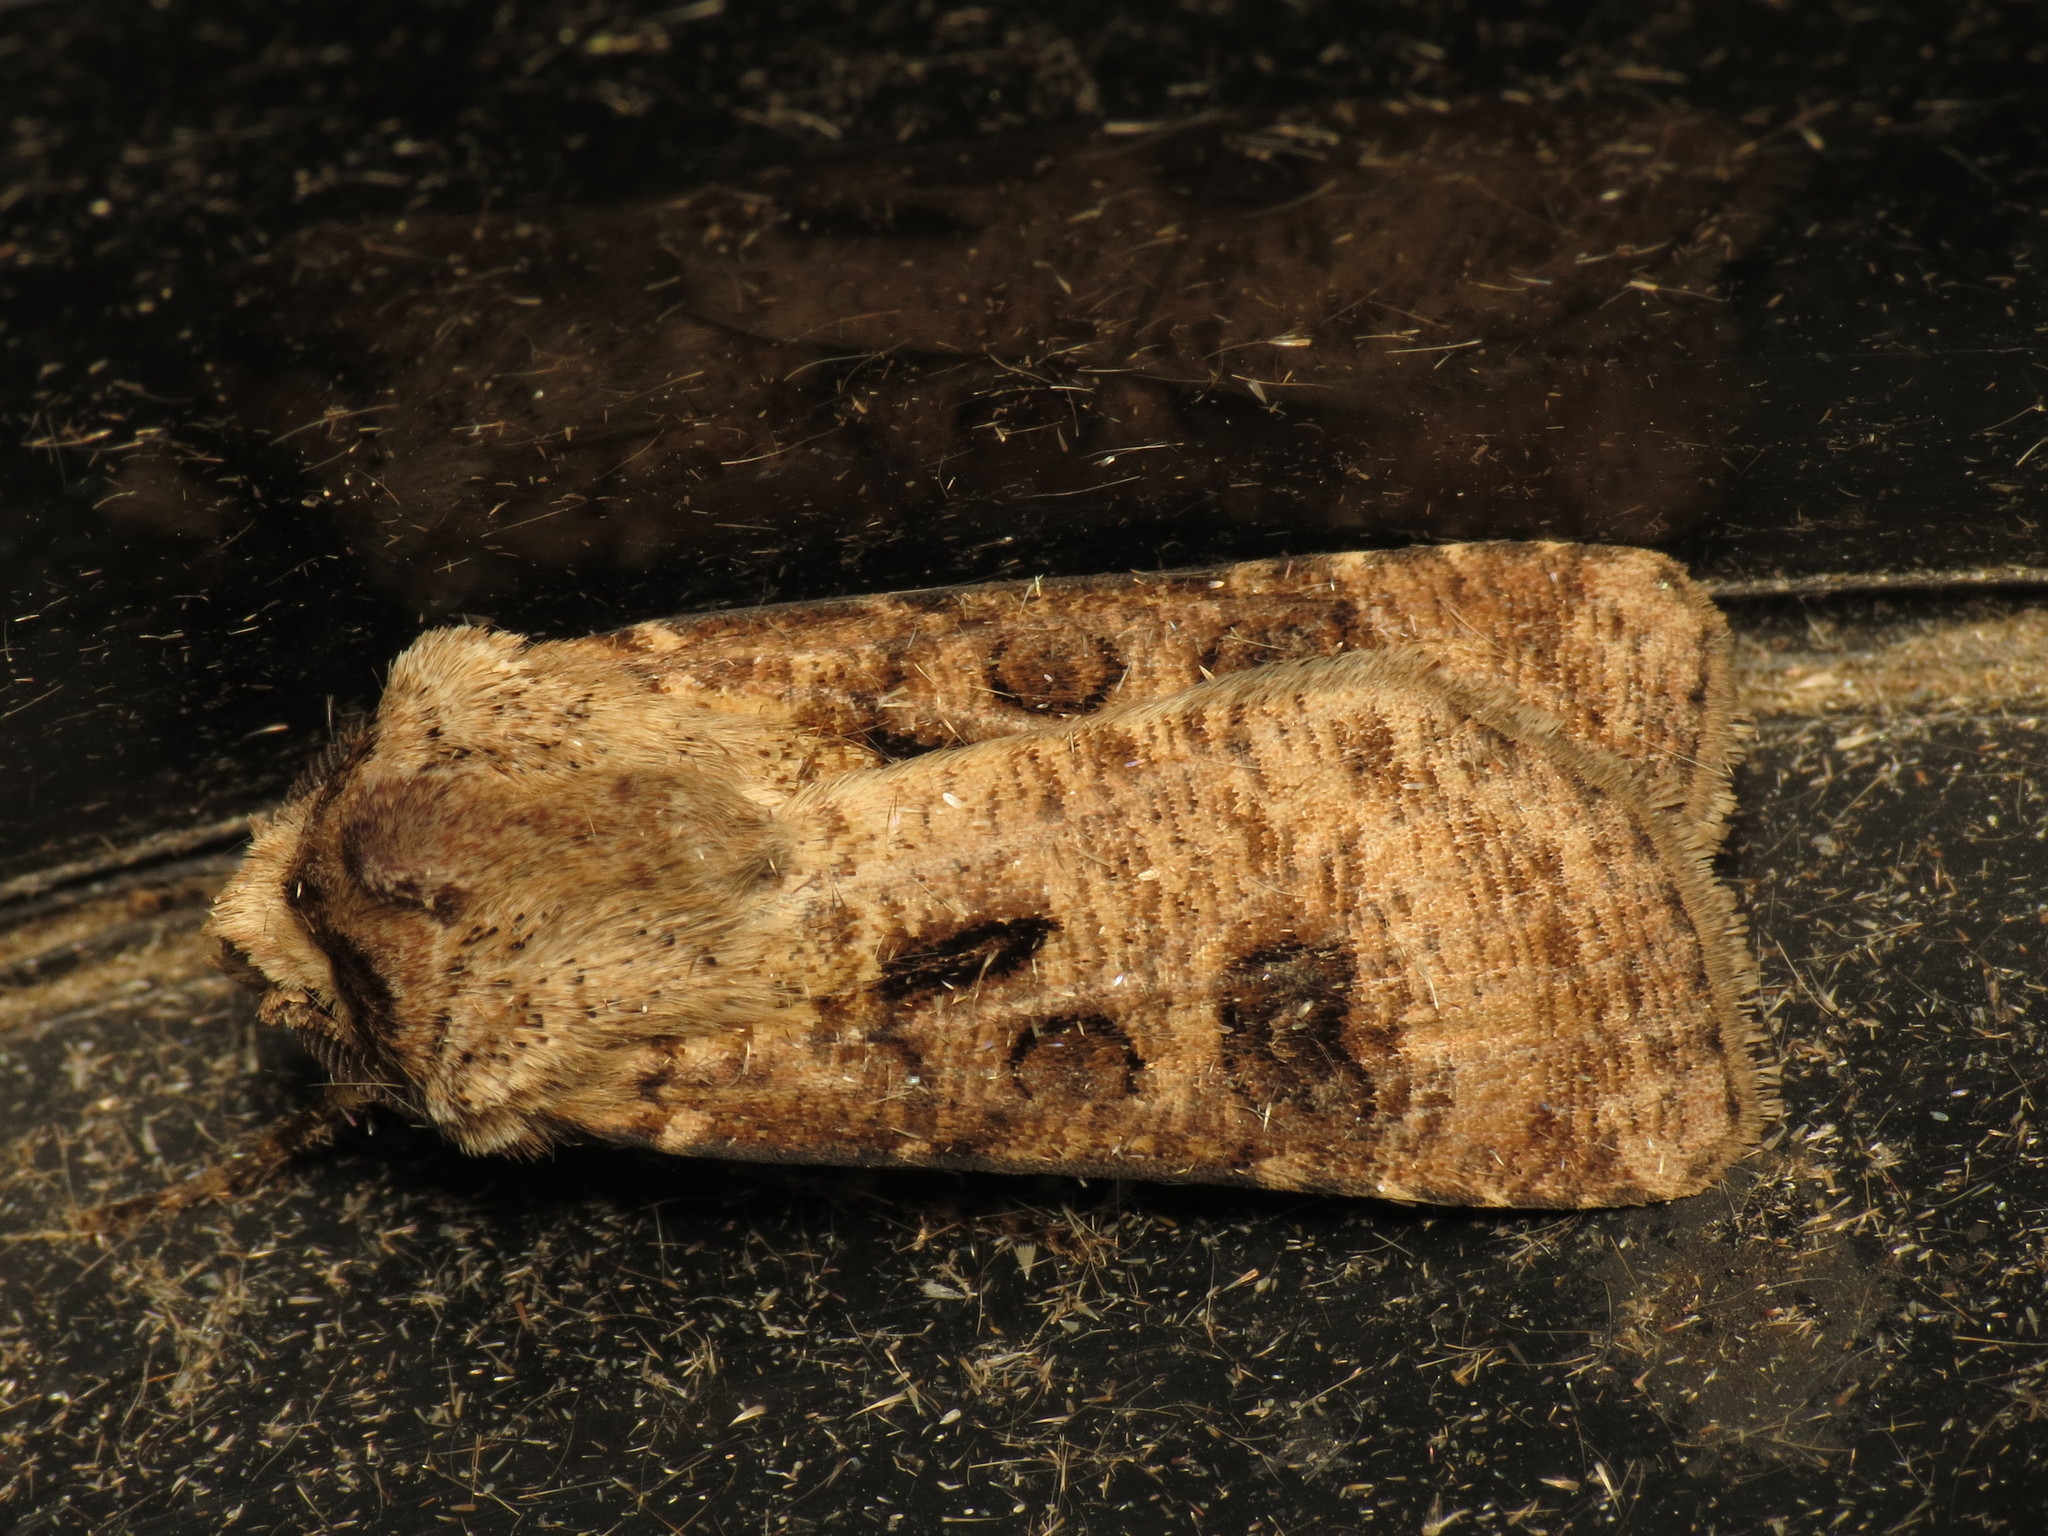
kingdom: Animalia
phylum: Arthropoda
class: Insecta
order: Lepidoptera
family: Noctuidae
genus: Agrotis
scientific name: Agrotis clavis
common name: Heart and club
